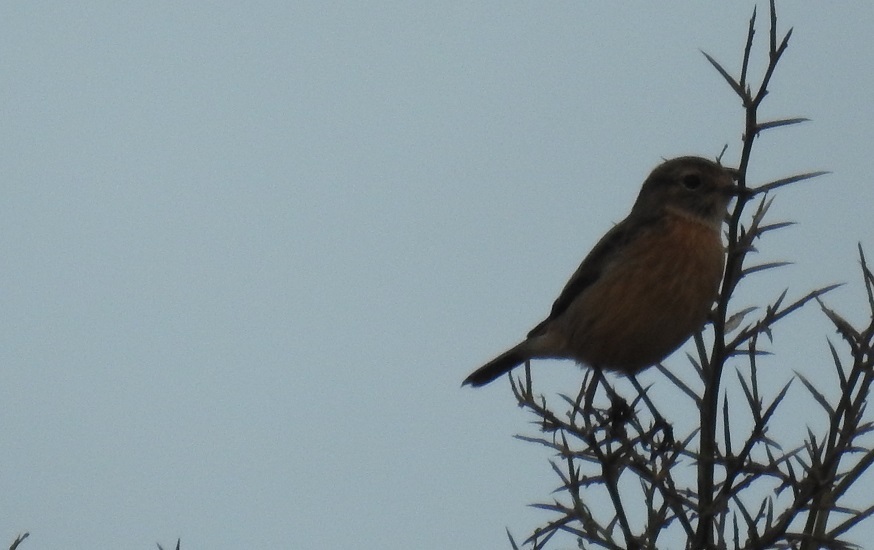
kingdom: Animalia
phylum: Chordata
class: Aves
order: Passeriformes
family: Muscicapidae
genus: Saxicola
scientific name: Saxicola rubicola
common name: European stonechat
